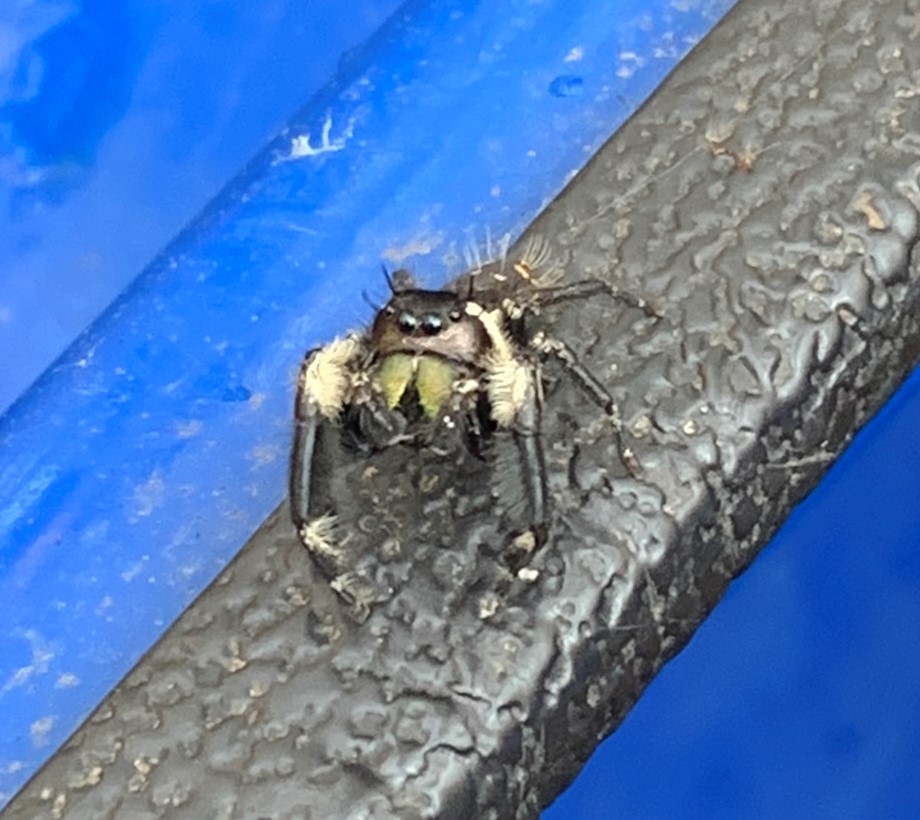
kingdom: Animalia
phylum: Arthropoda
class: Arachnida
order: Araneae
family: Salticidae
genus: Phidippus
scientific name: Phidippus otiosus
